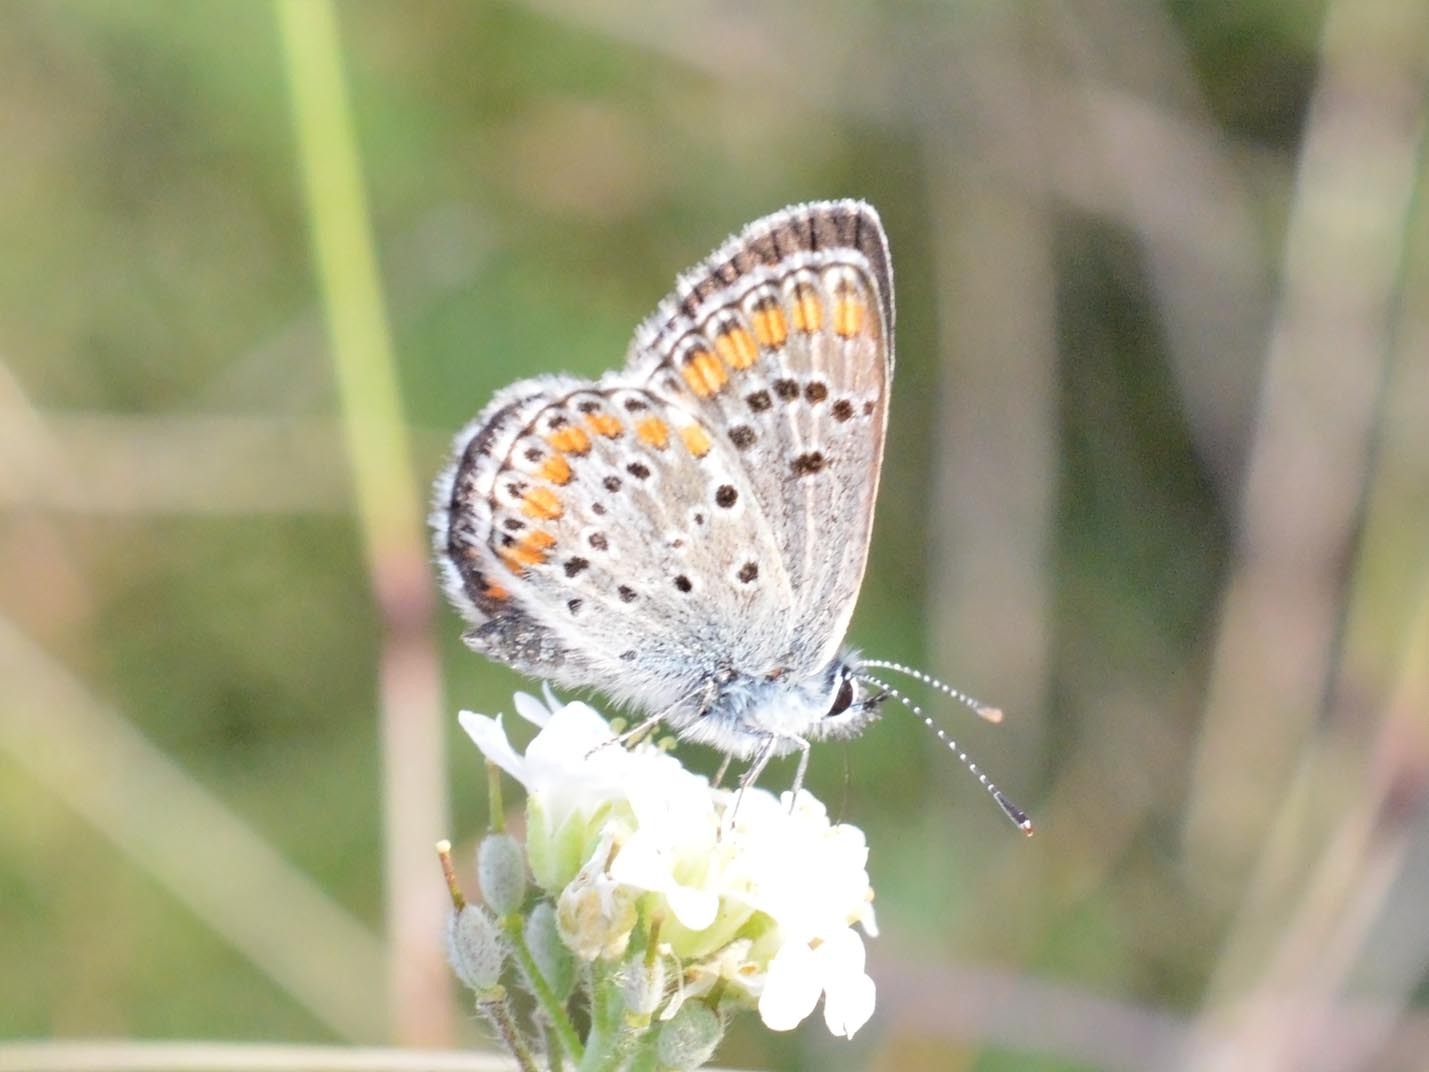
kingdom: Animalia
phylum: Arthropoda
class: Insecta
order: Lepidoptera
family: Lycaenidae
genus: Aricia
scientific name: Aricia agestis
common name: Brown argus
